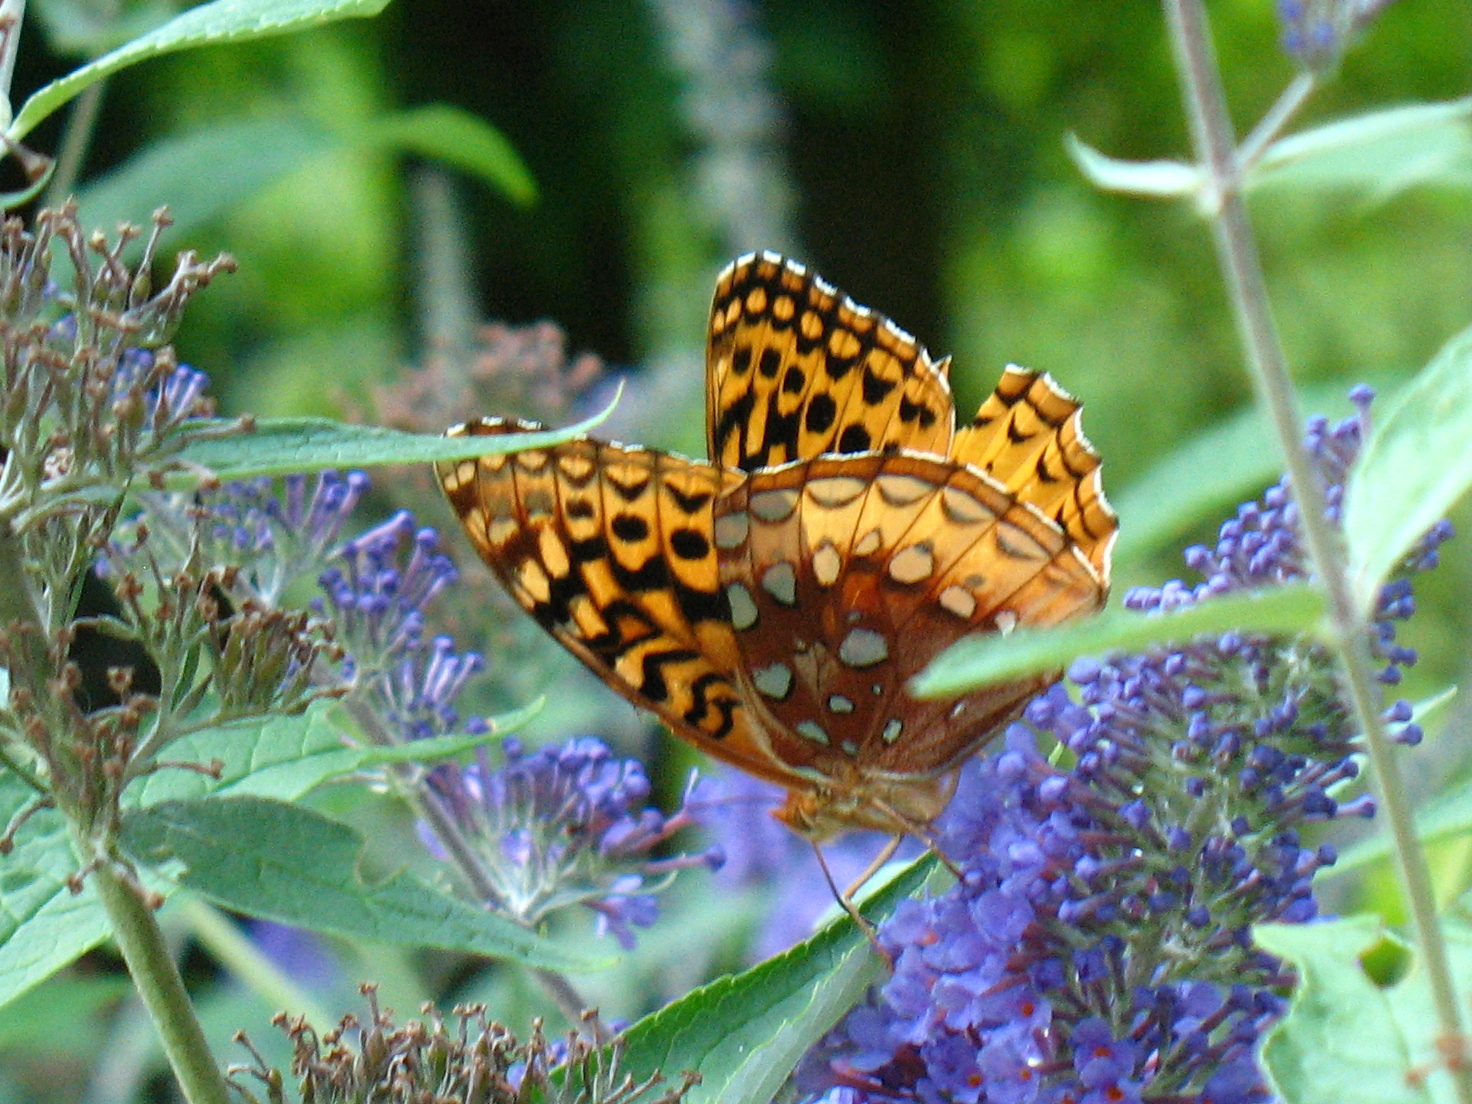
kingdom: Animalia
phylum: Arthropoda
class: Insecta
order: Lepidoptera
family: Nymphalidae
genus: Speyeria
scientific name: Speyeria cybele
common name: Great spangled fritillary
